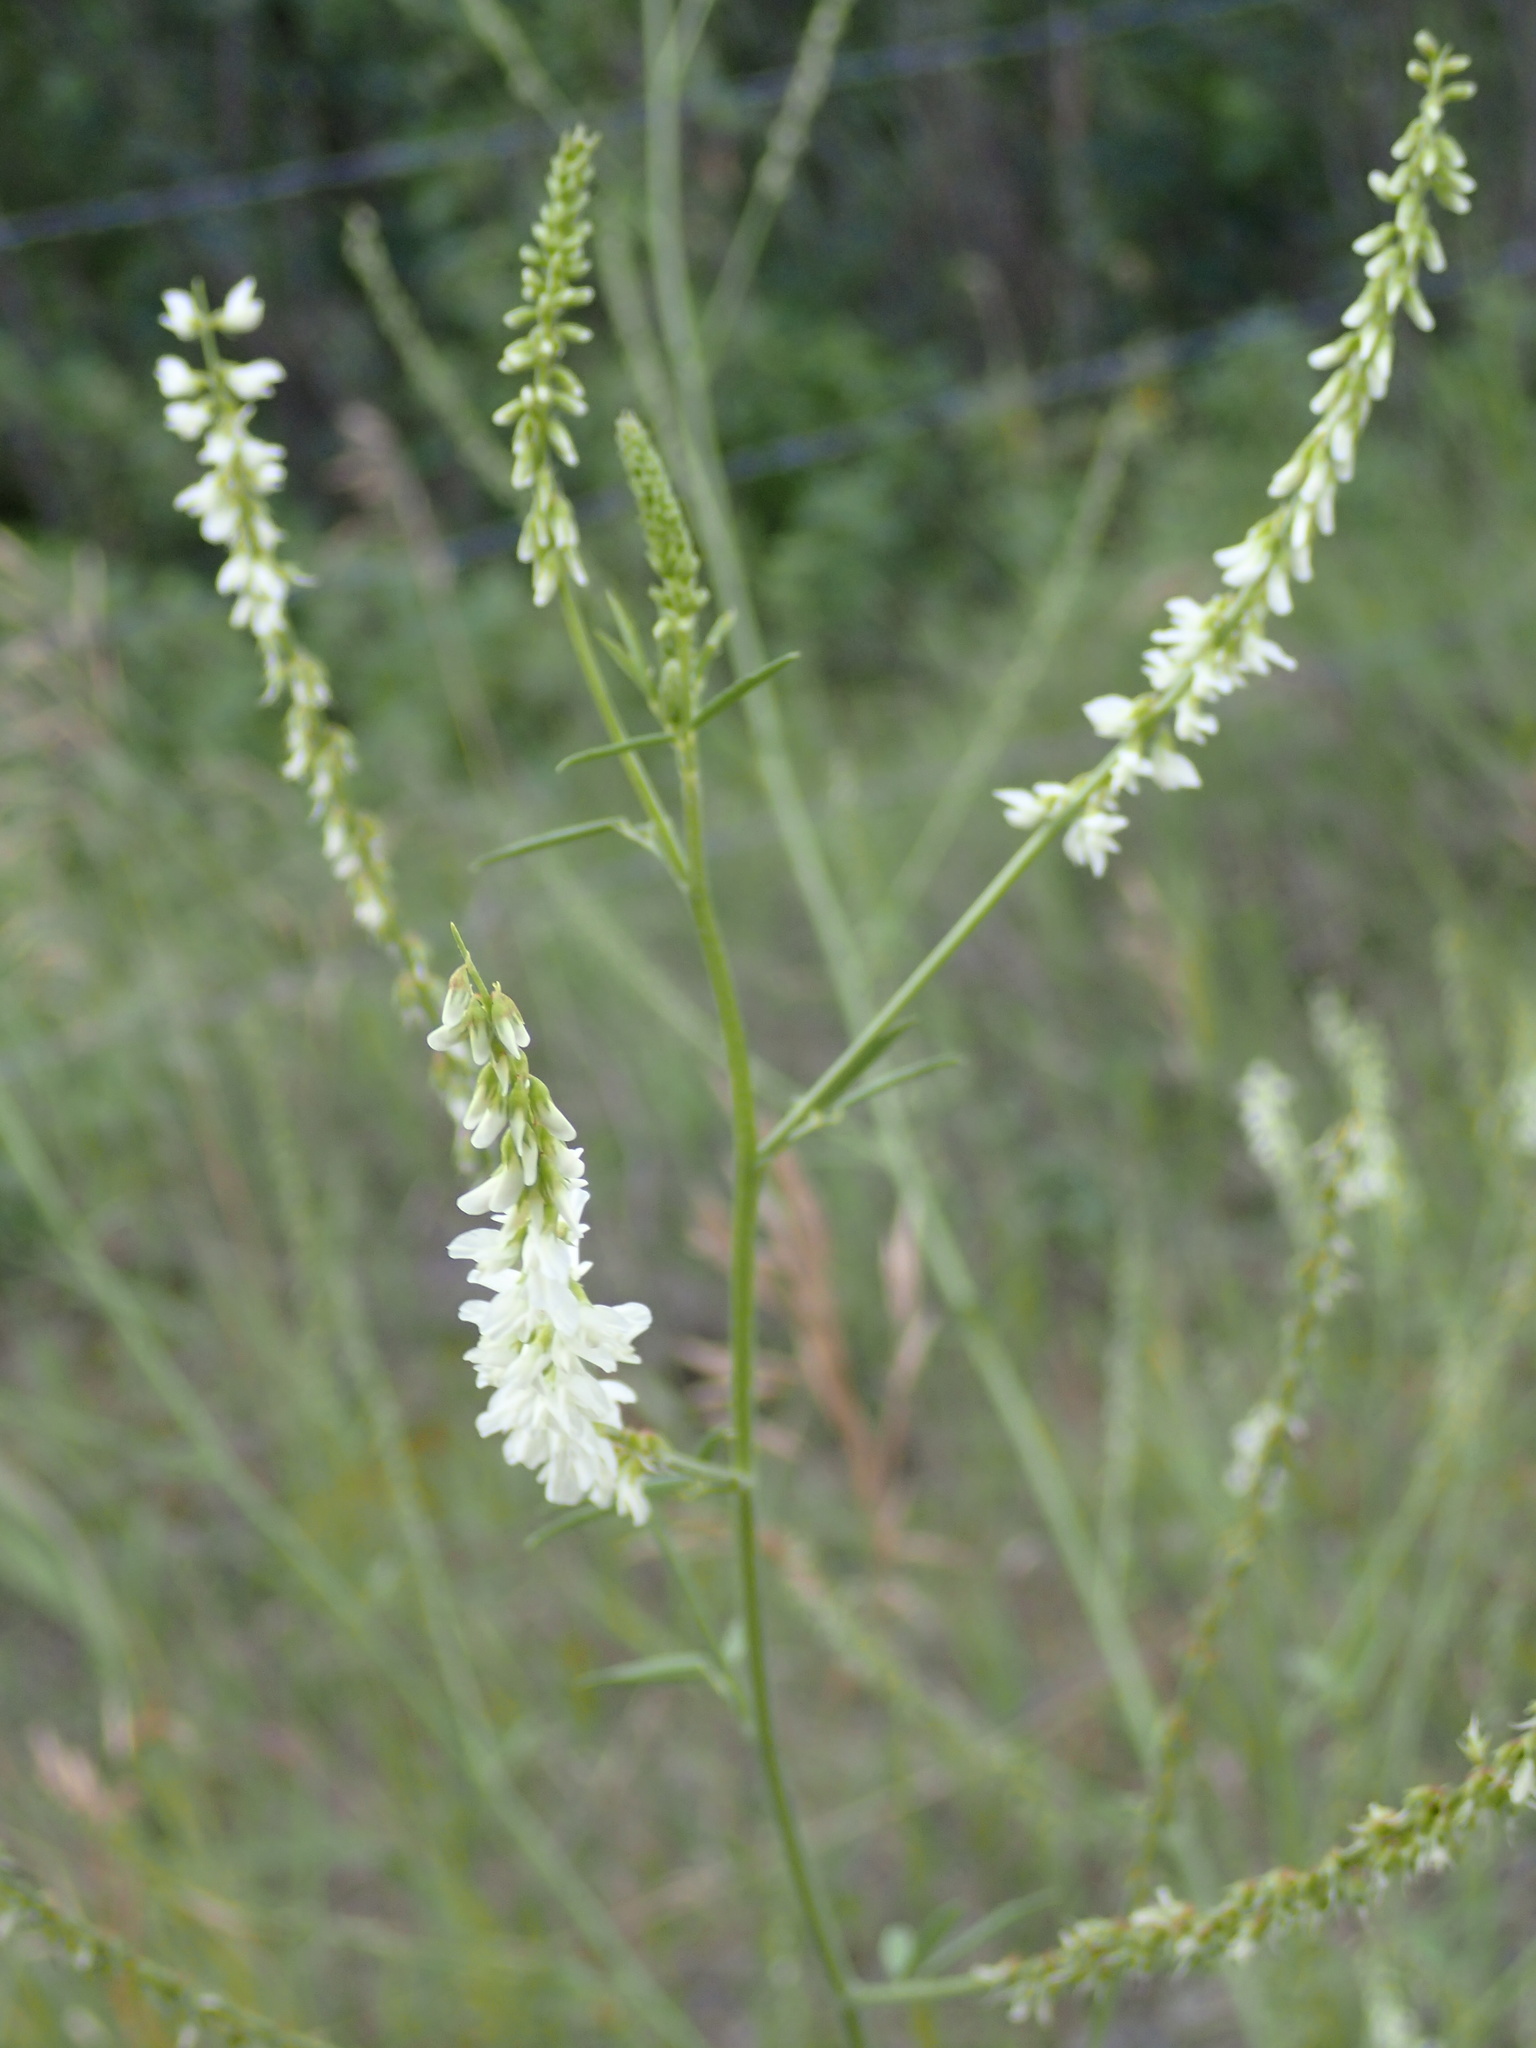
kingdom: Plantae
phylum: Tracheophyta
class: Magnoliopsida
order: Fabales
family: Fabaceae
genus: Melilotus
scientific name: Melilotus albus
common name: White melilot
